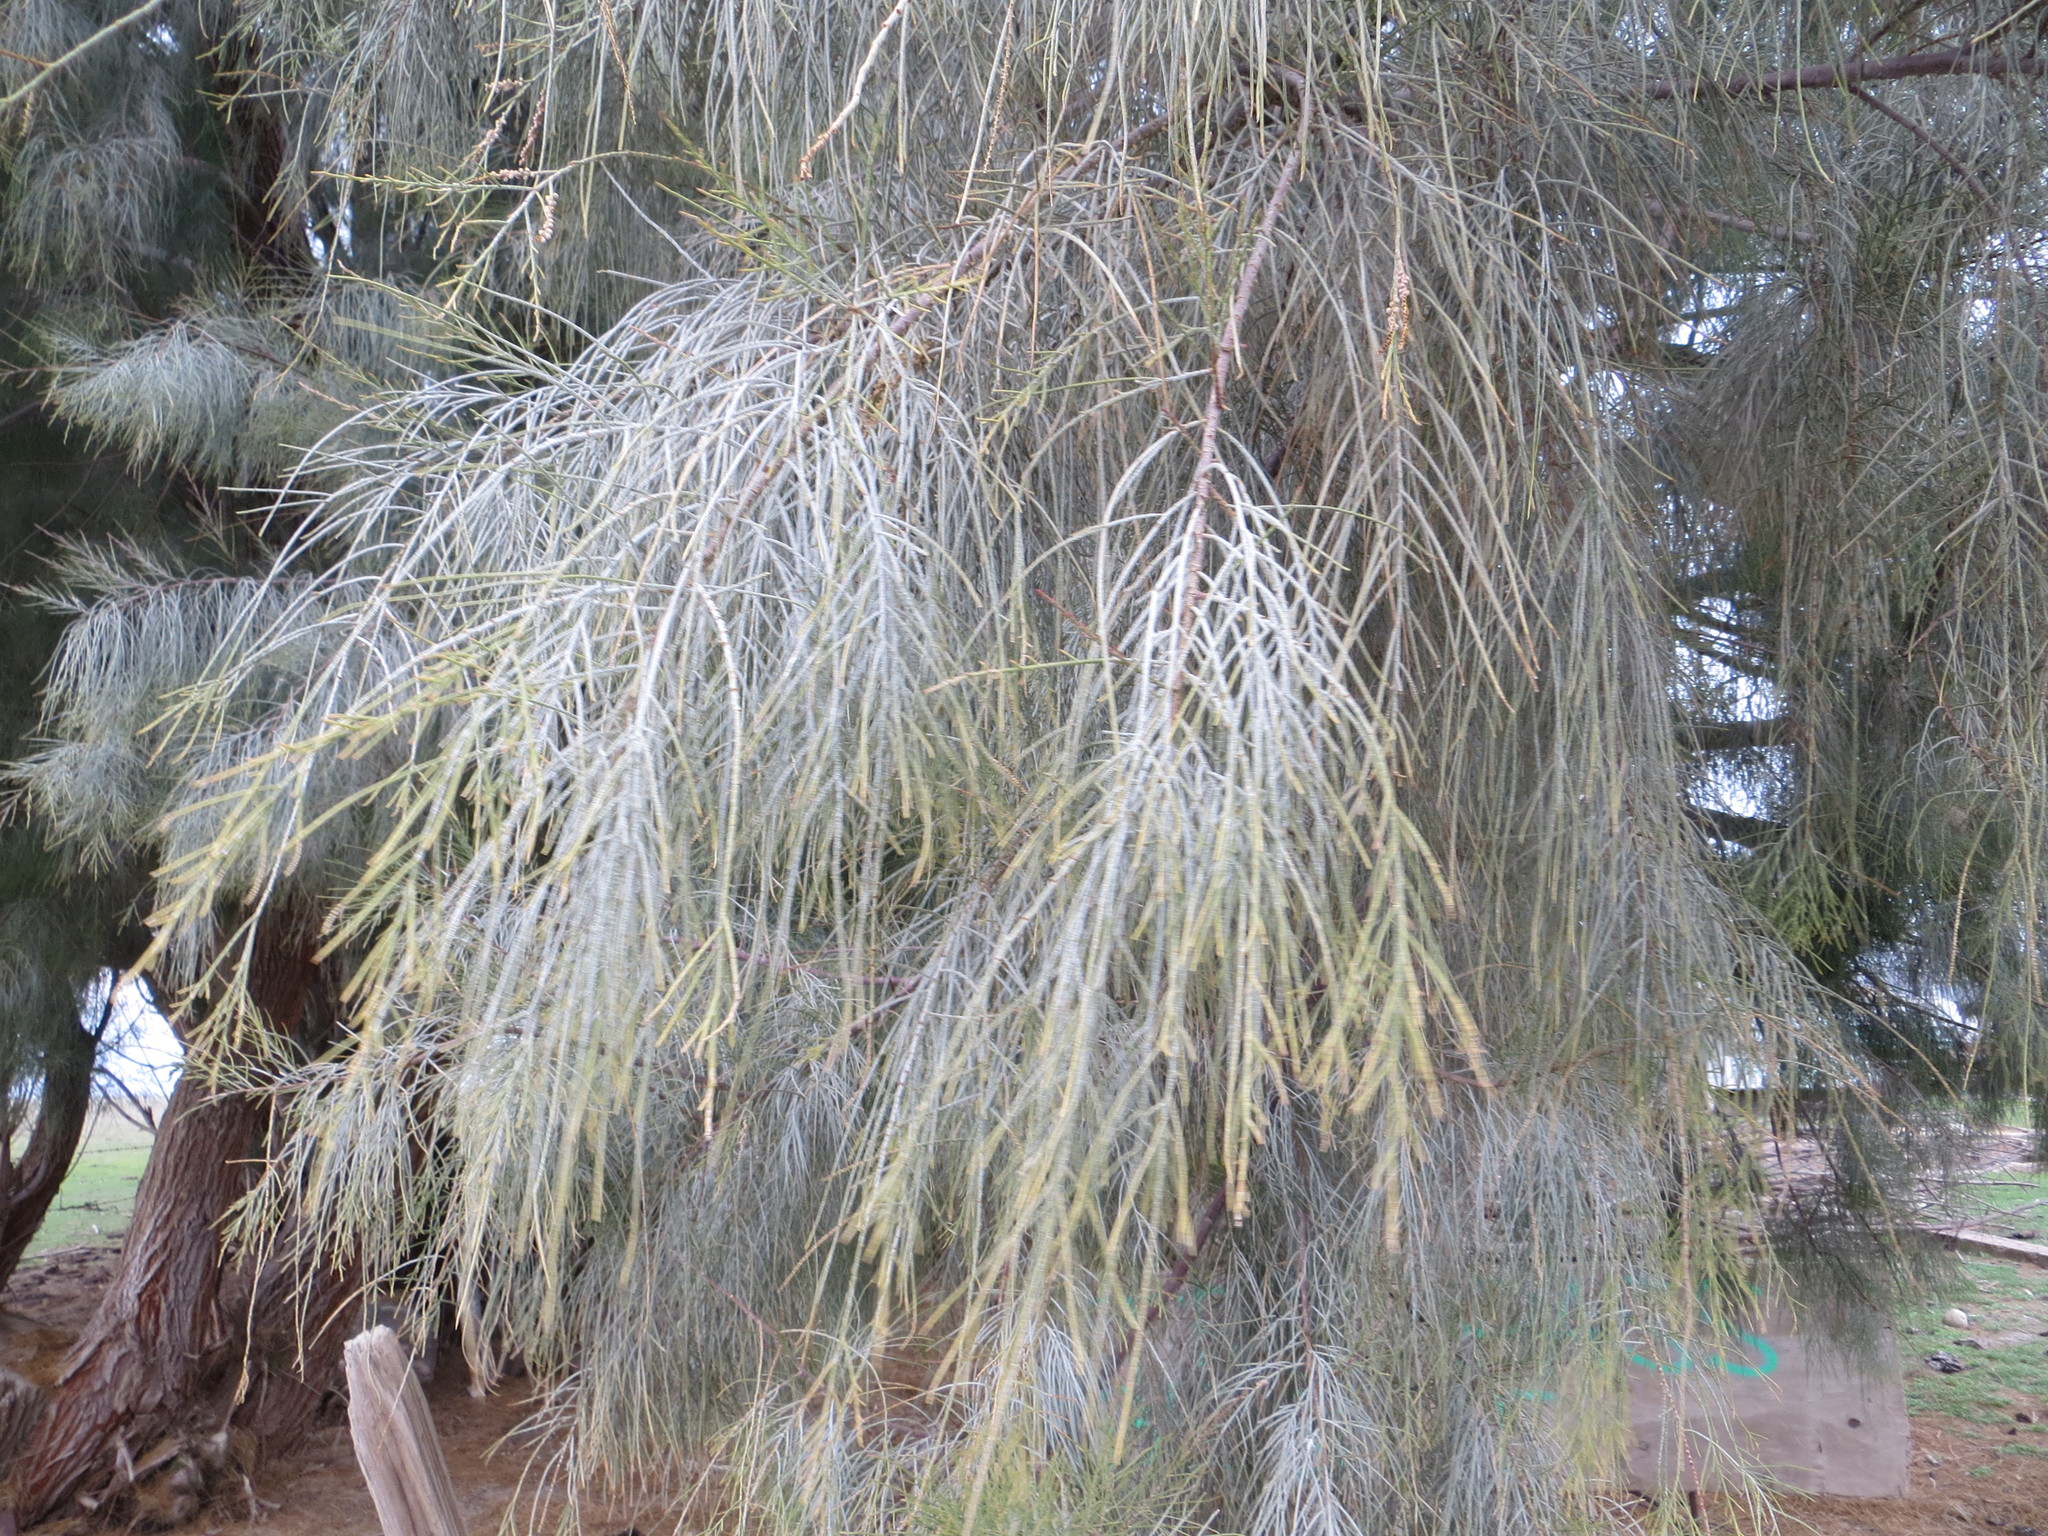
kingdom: Plantae
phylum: Tracheophyta
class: Magnoliopsida
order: Caryophyllales
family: Tamaricaceae
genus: Tamarix
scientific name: Tamarix
